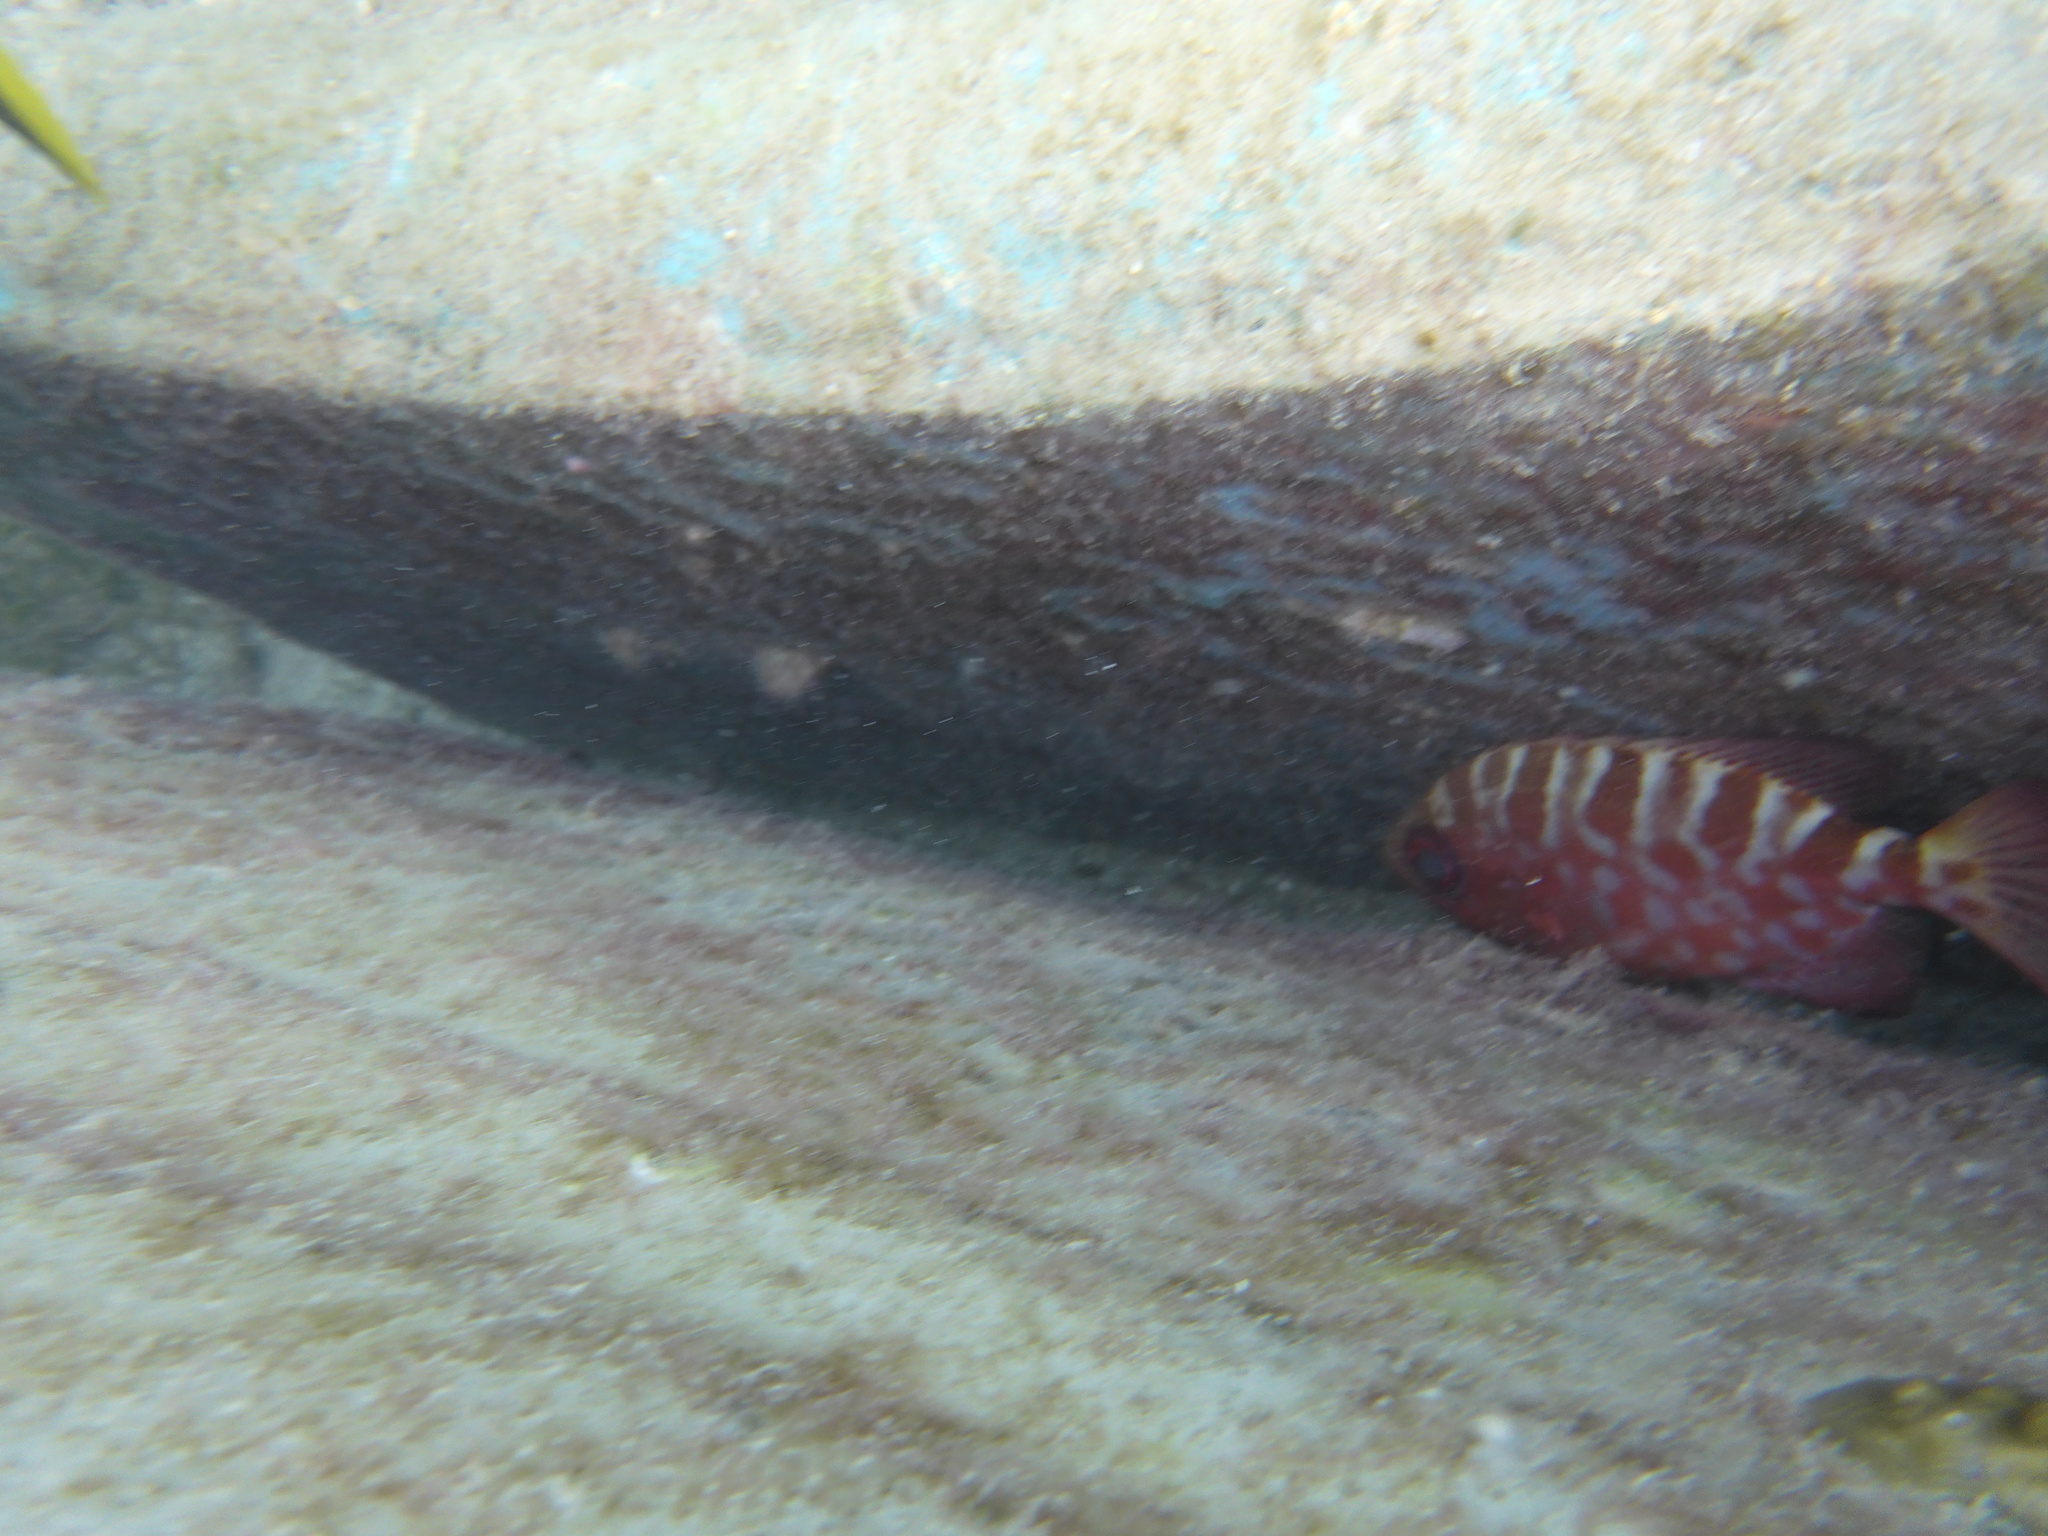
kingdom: Animalia
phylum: Chordata
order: Perciformes
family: Priacanthidae
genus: Heteropriacanthus
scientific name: Heteropriacanthus cruentatus
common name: Glasseye
